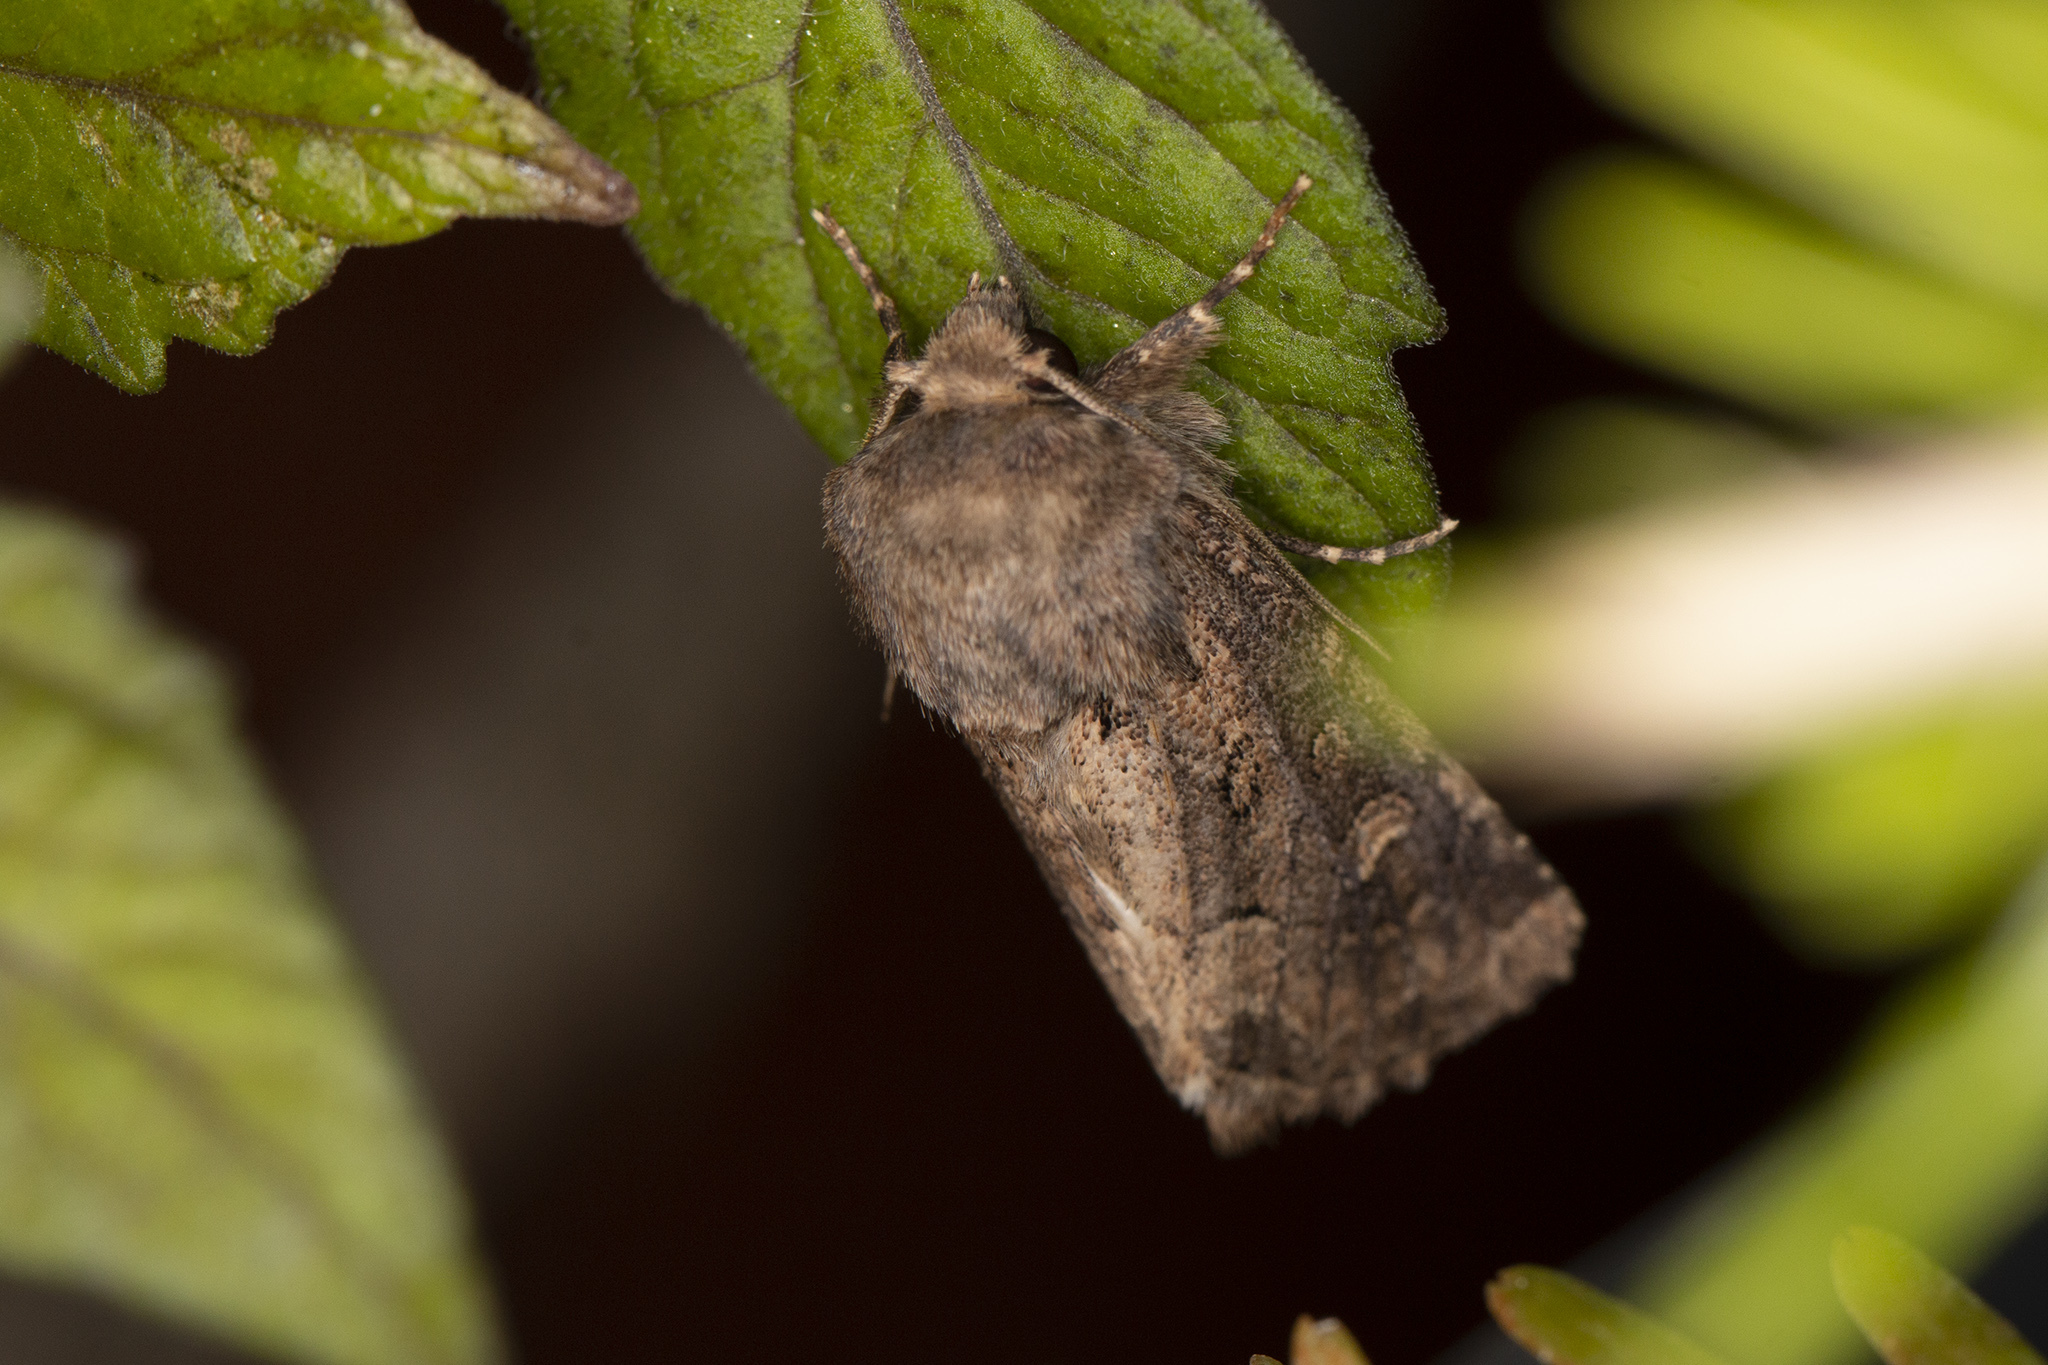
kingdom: Animalia
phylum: Arthropoda
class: Insecta
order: Lepidoptera
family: Noctuidae
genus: Luperina
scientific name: Luperina testacea
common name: Flounced rustic
